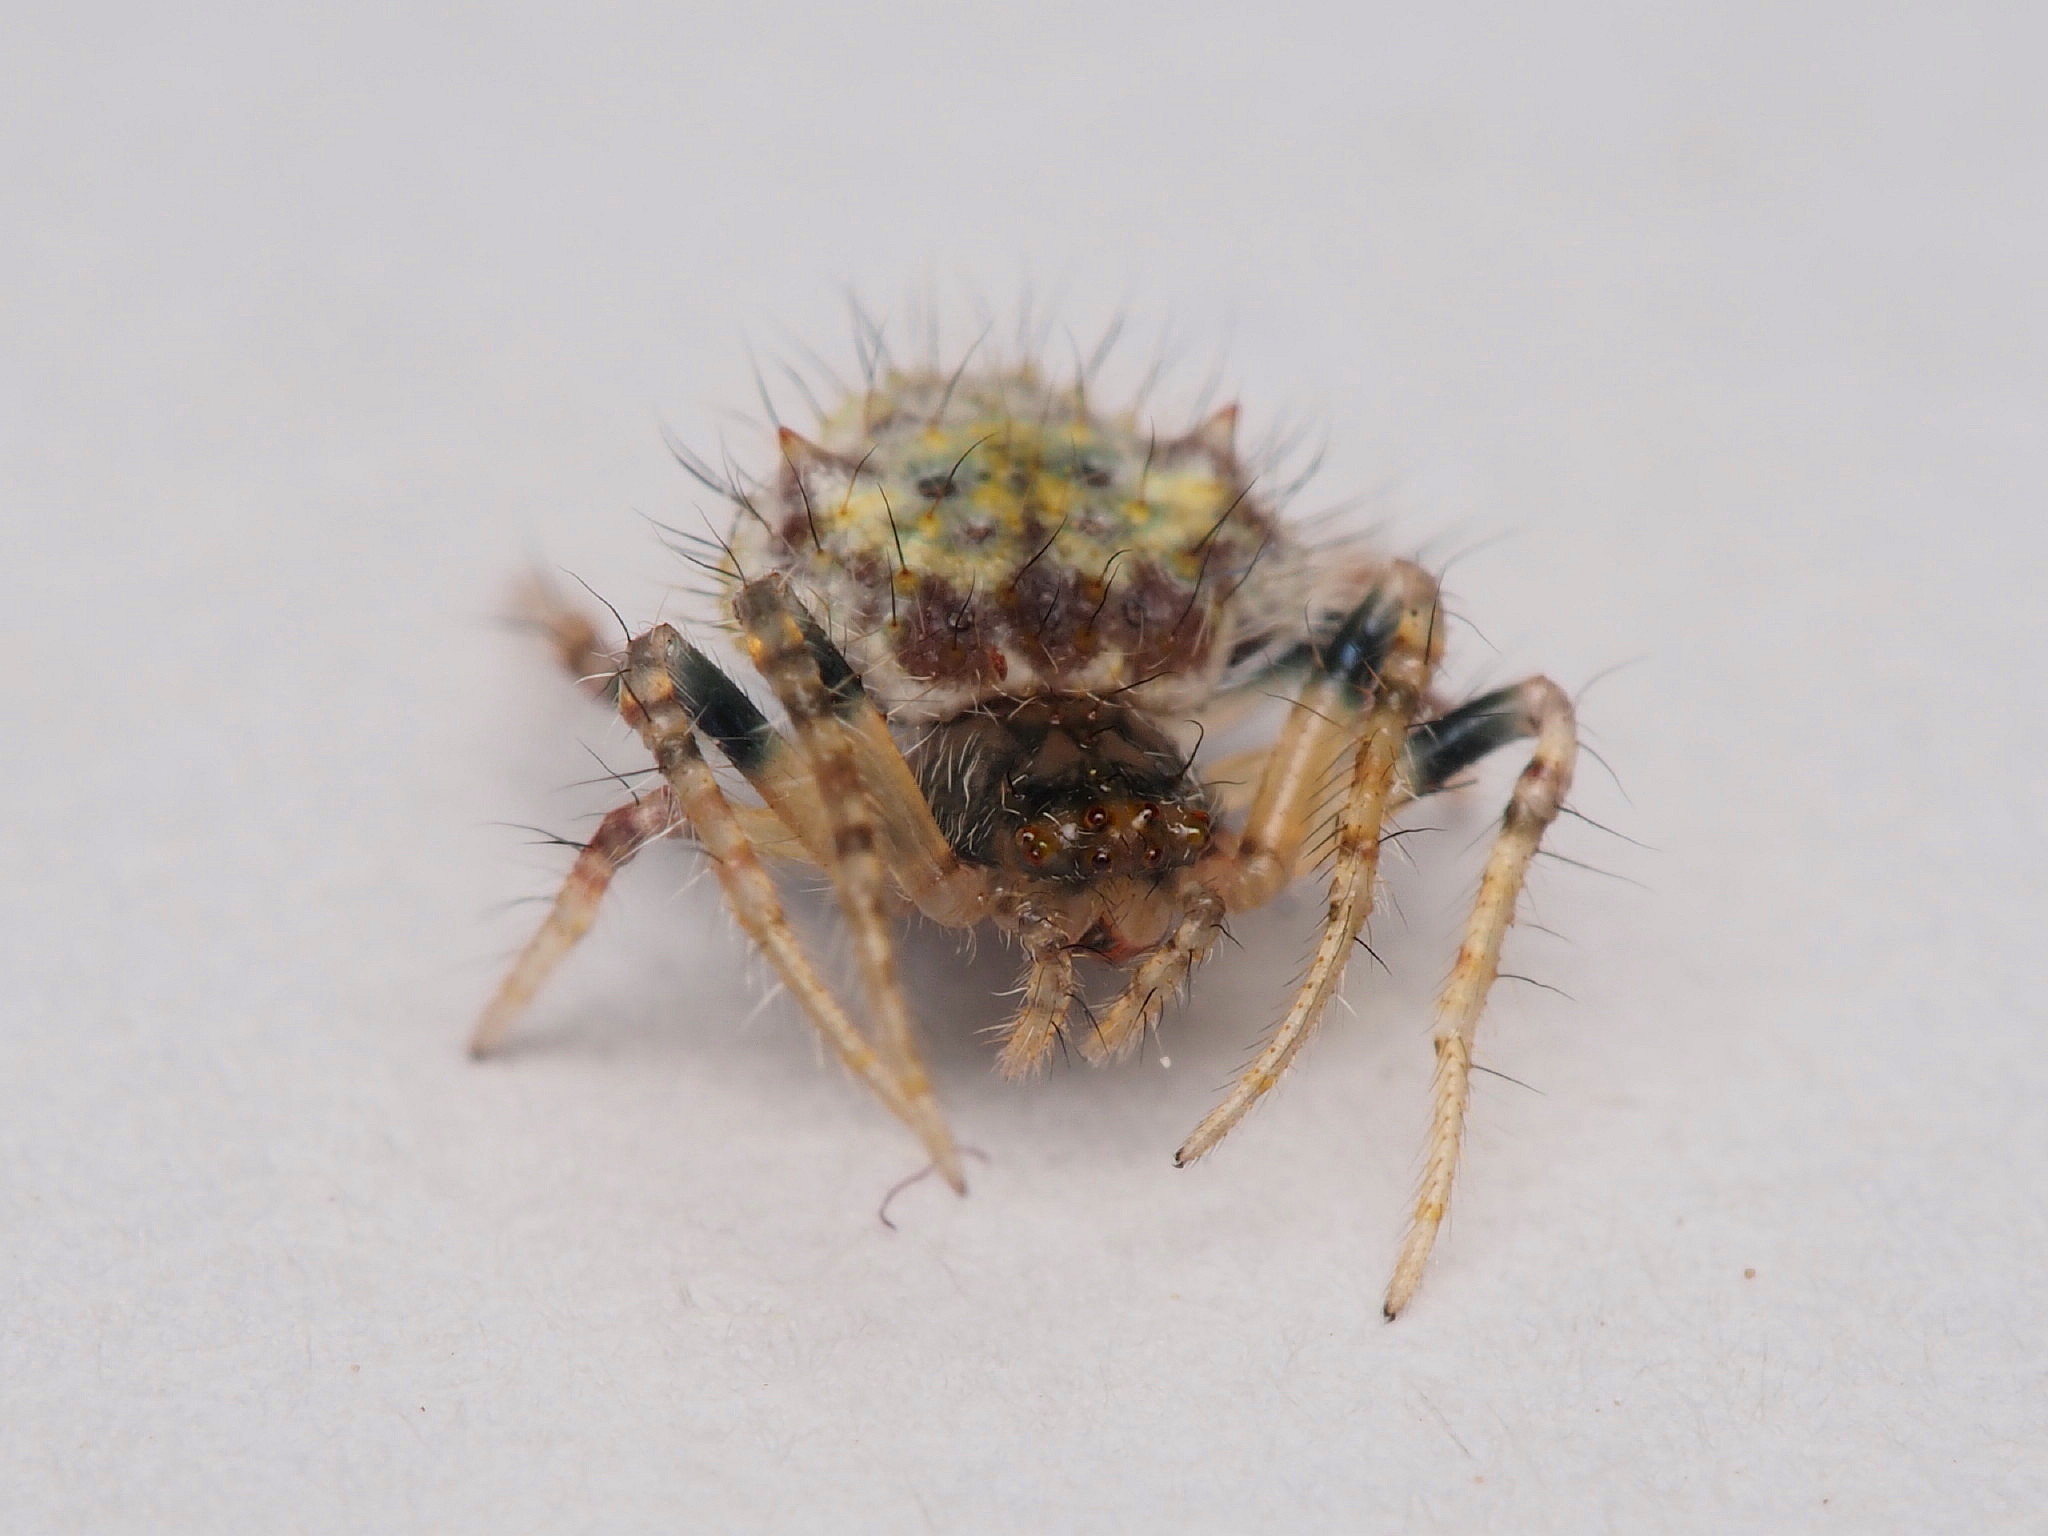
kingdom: Animalia
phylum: Arthropoda
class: Arachnida
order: Araneae
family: Araneidae
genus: Poecilopachys
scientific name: Poecilopachys australasia
